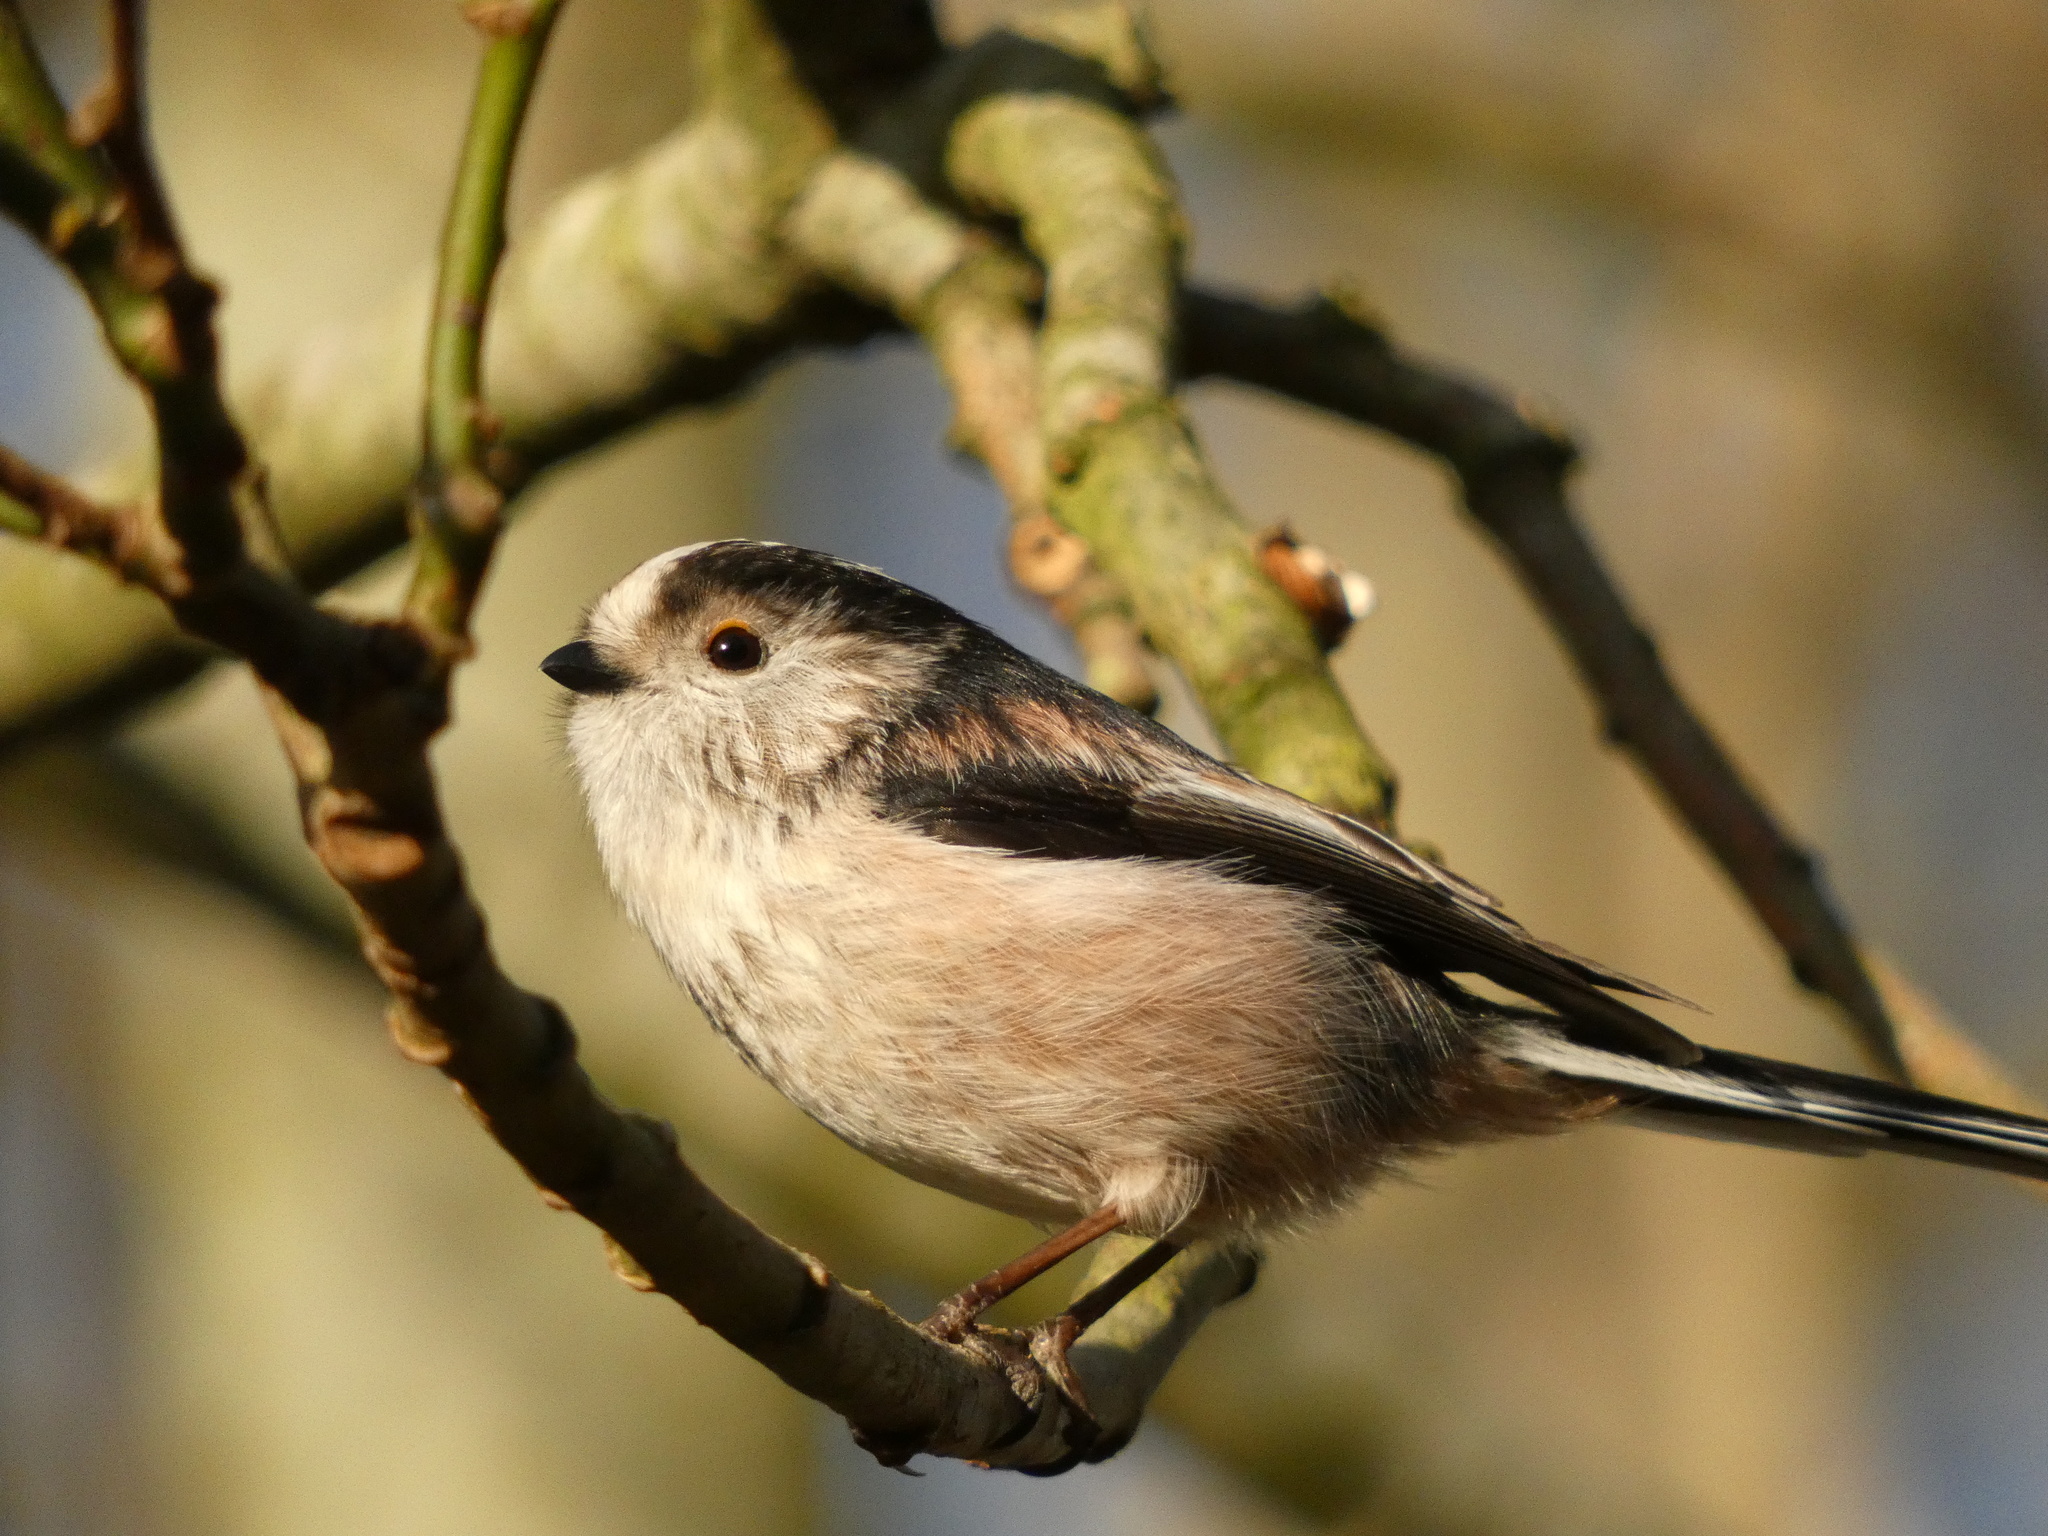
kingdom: Animalia
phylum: Chordata
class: Aves
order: Passeriformes
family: Aegithalidae
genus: Aegithalos
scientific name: Aegithalos caudatus
